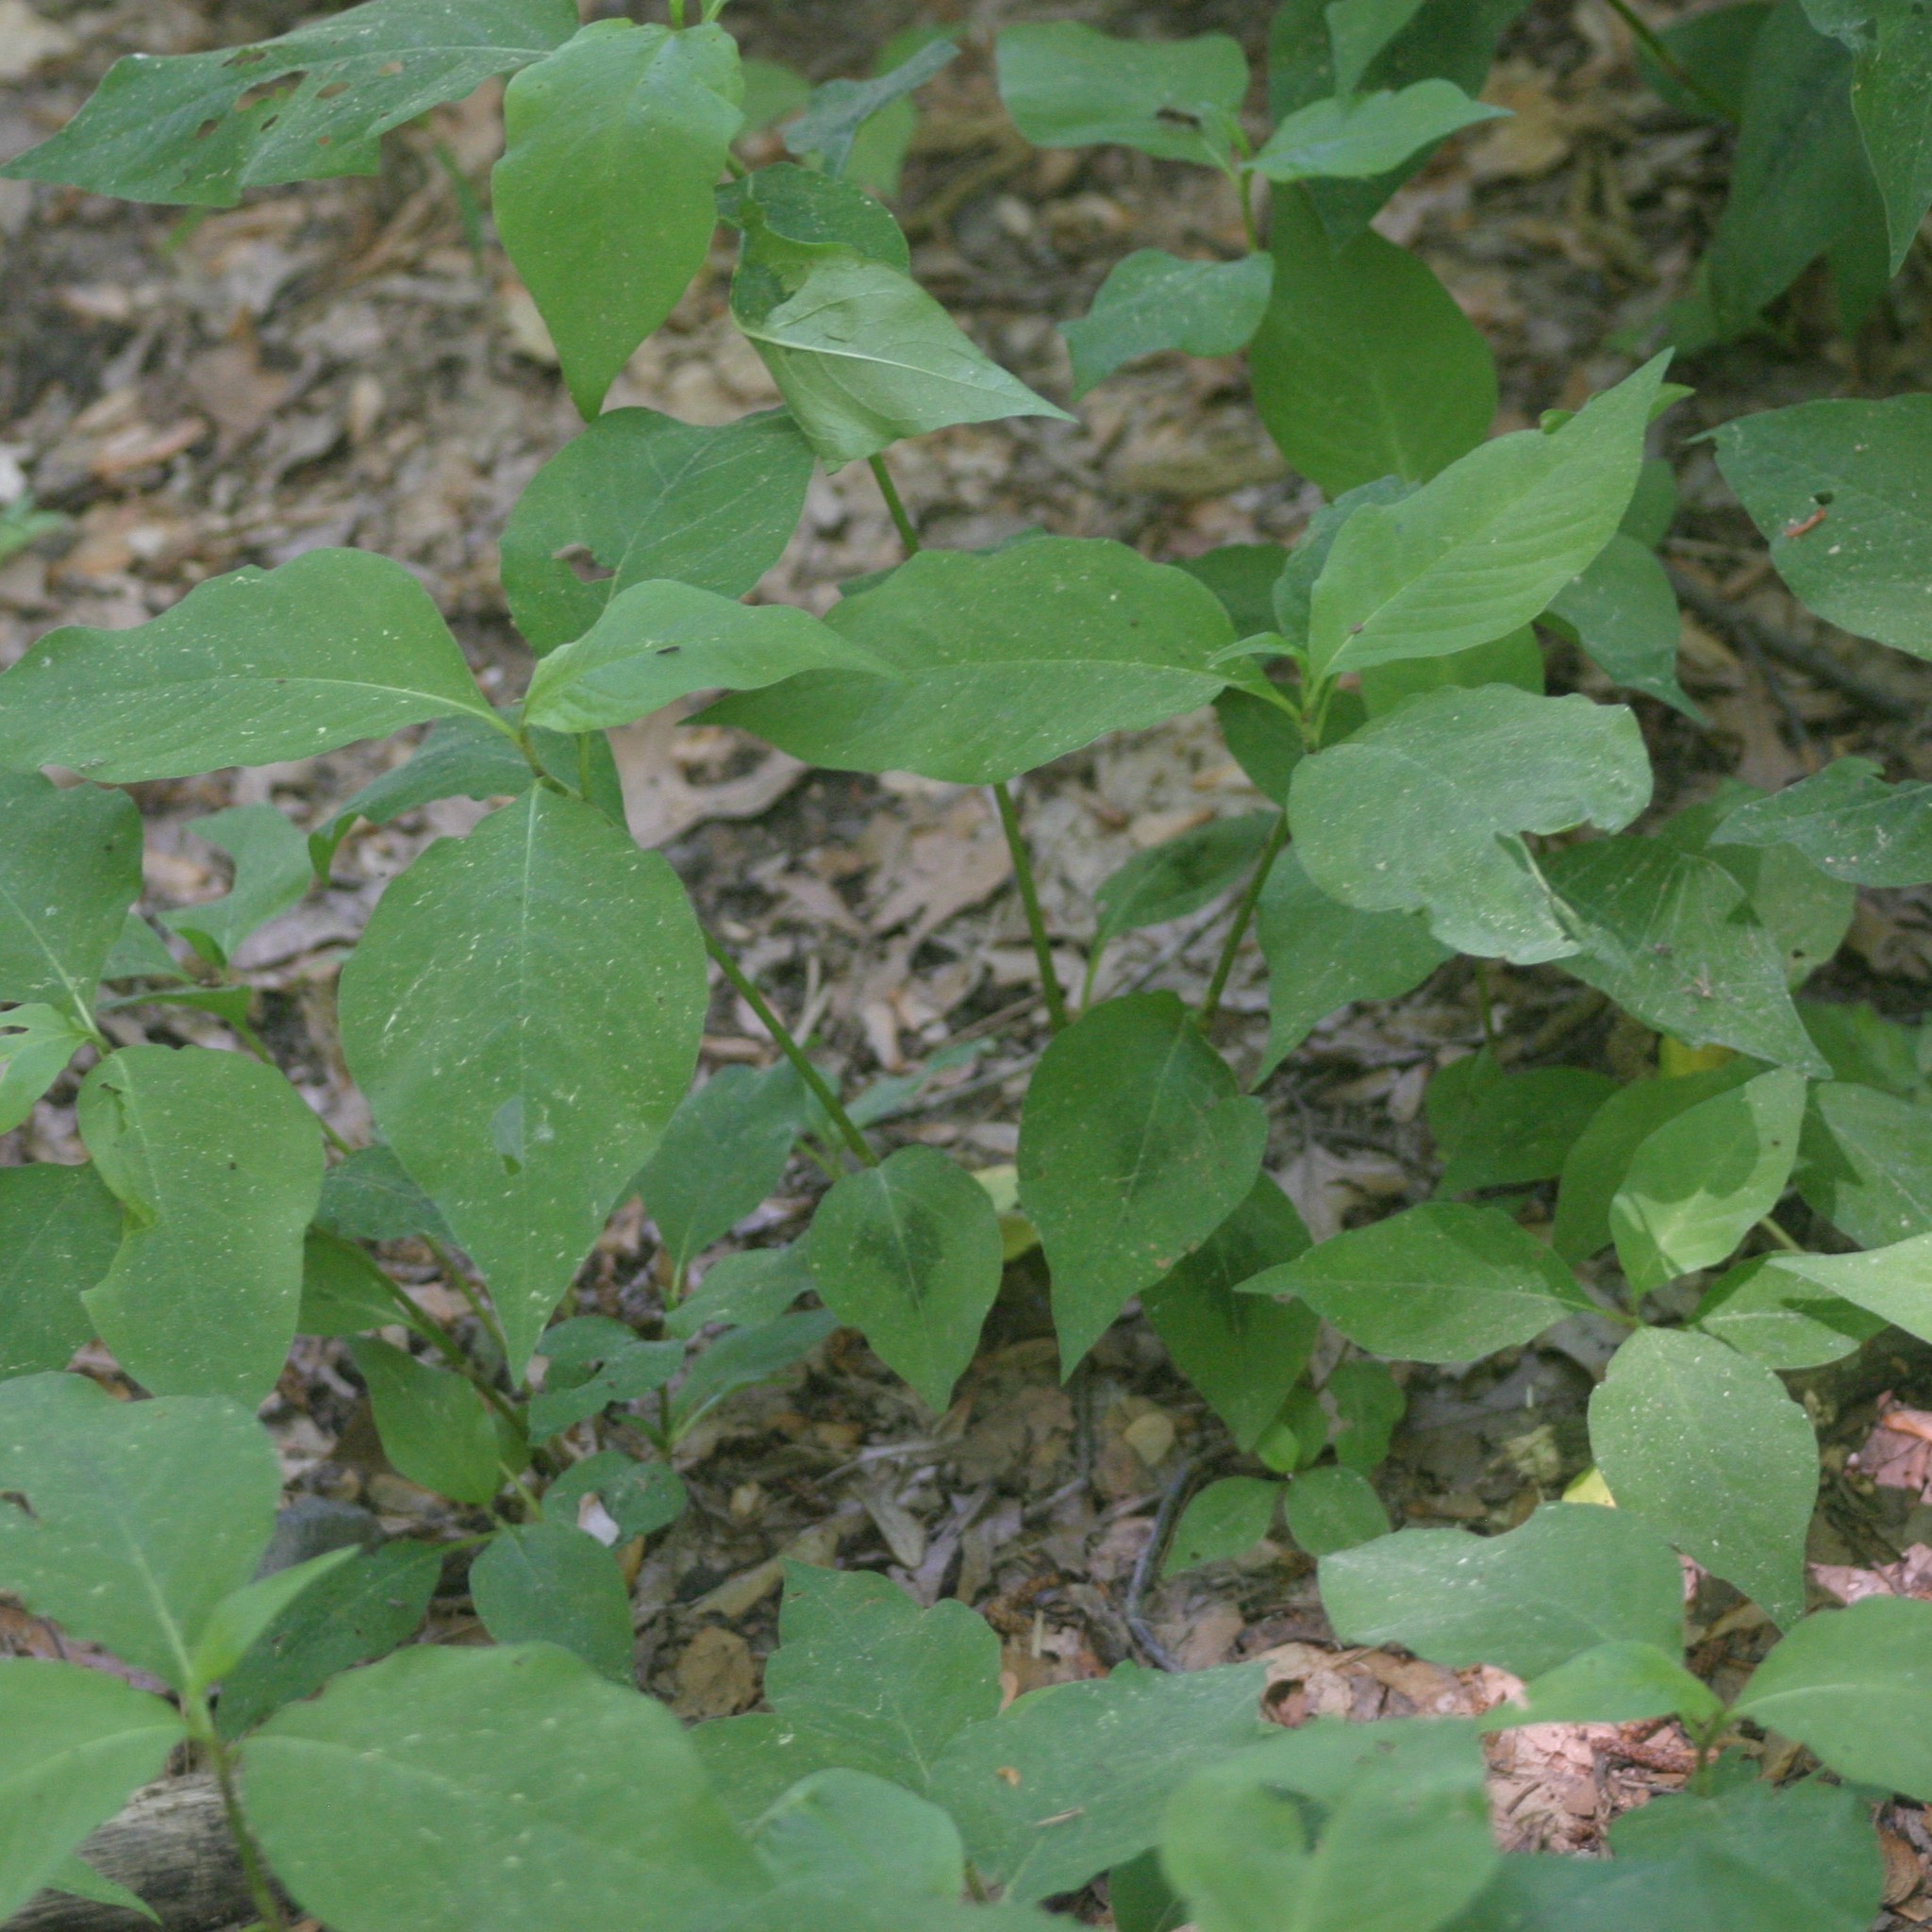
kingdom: Plantae
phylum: Tracheophyta
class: Magnoliopsida
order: Caryophyllales
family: Polygonaceae
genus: Persicaria
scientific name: Persicaria virginiana
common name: Jumpseed
